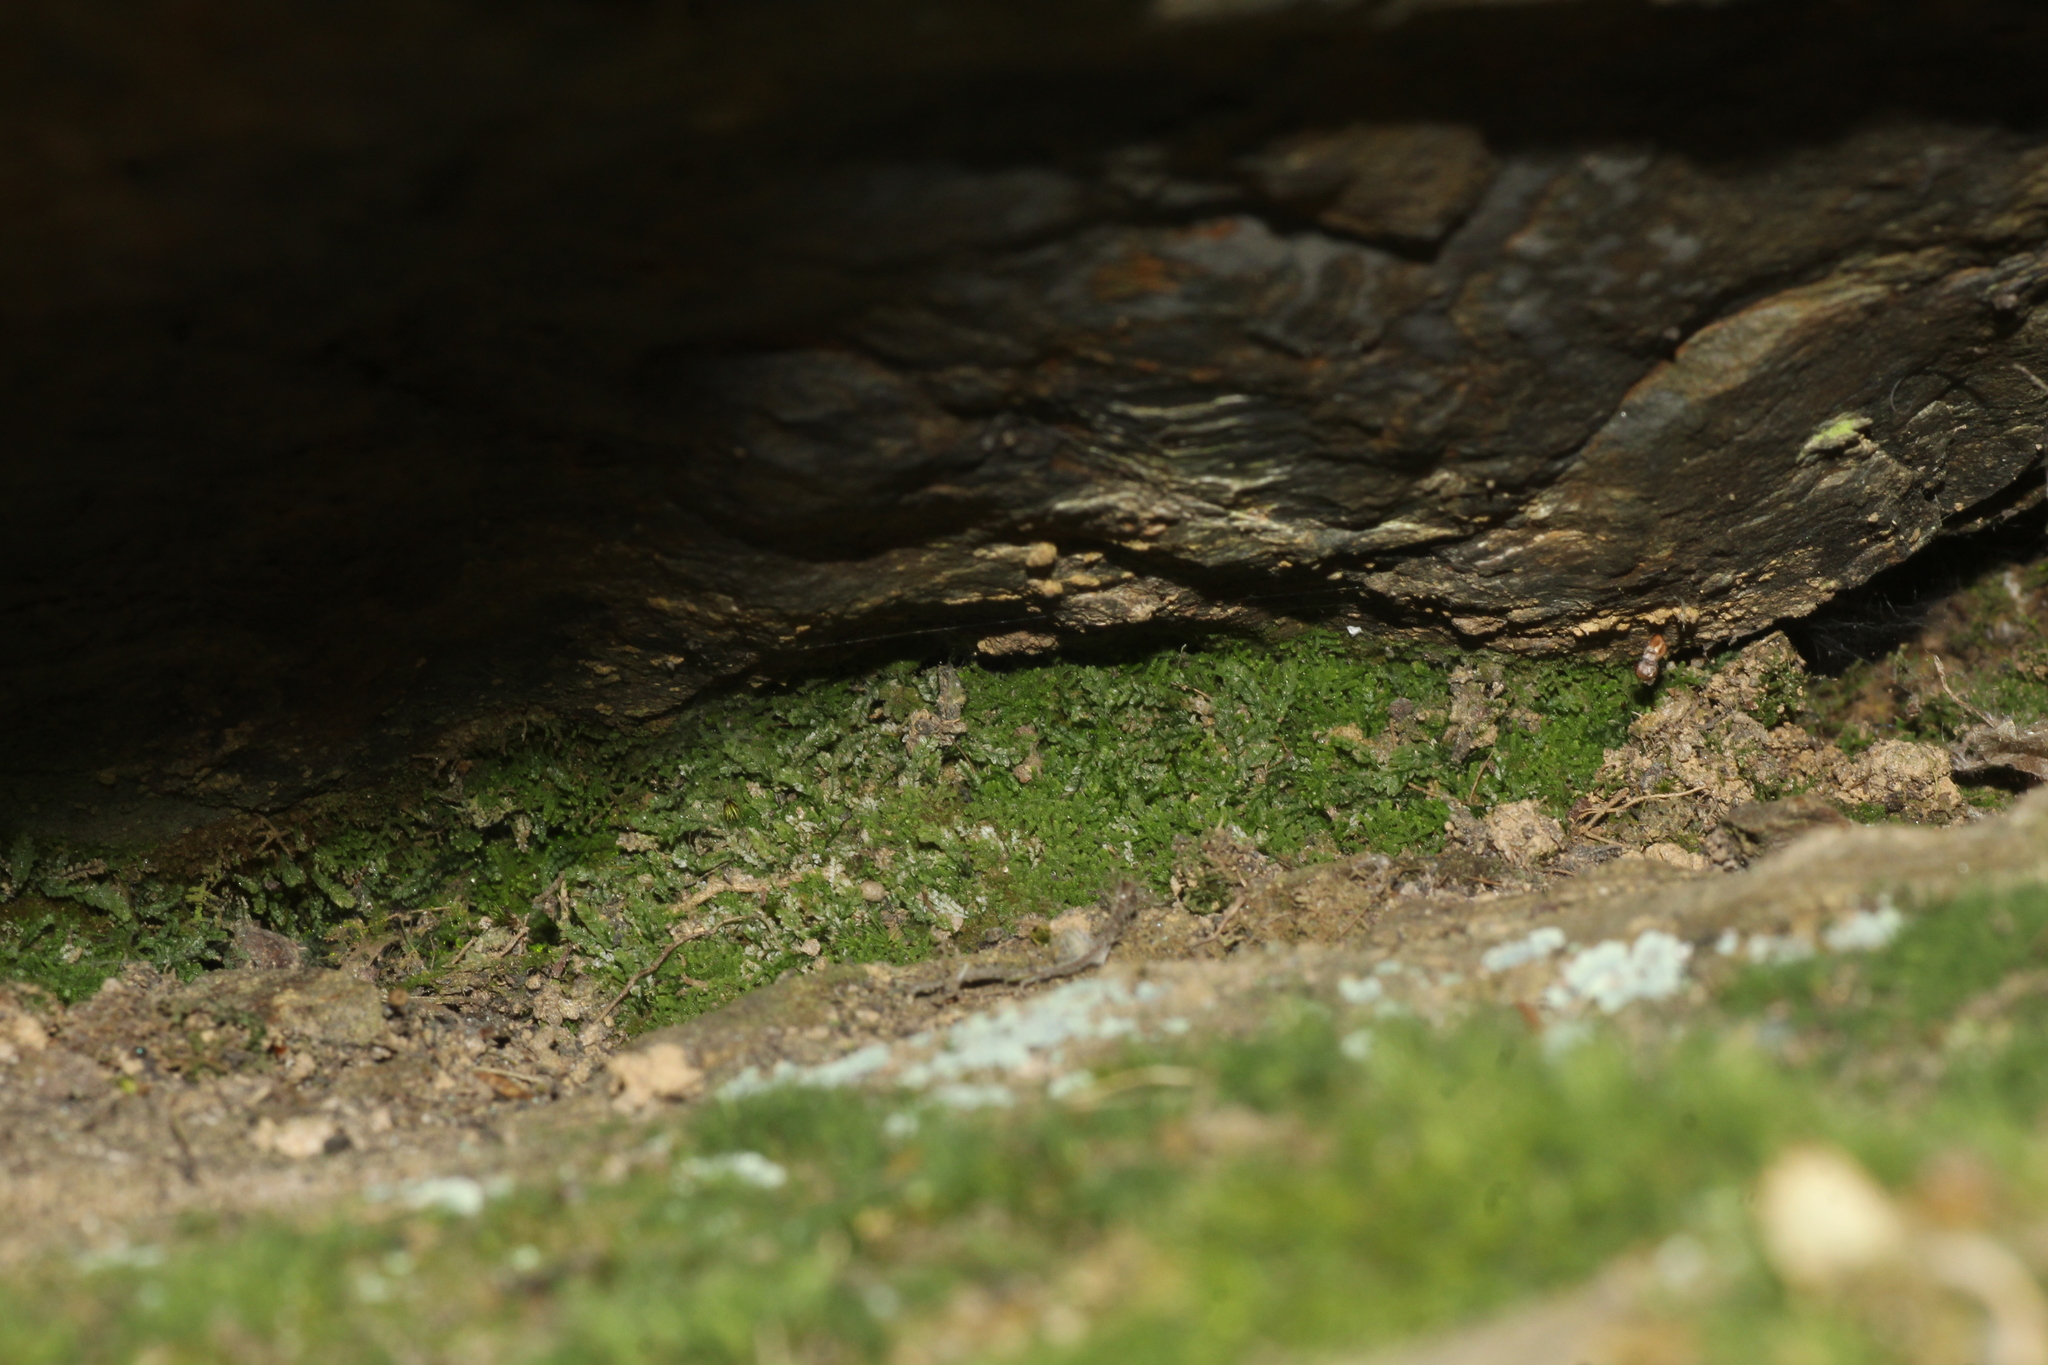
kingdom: Plantae
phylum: Bryophyta
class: Bryopsida
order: Pottiales
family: Mitteniaceae
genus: Mittenia
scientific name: Mittenia plumula
